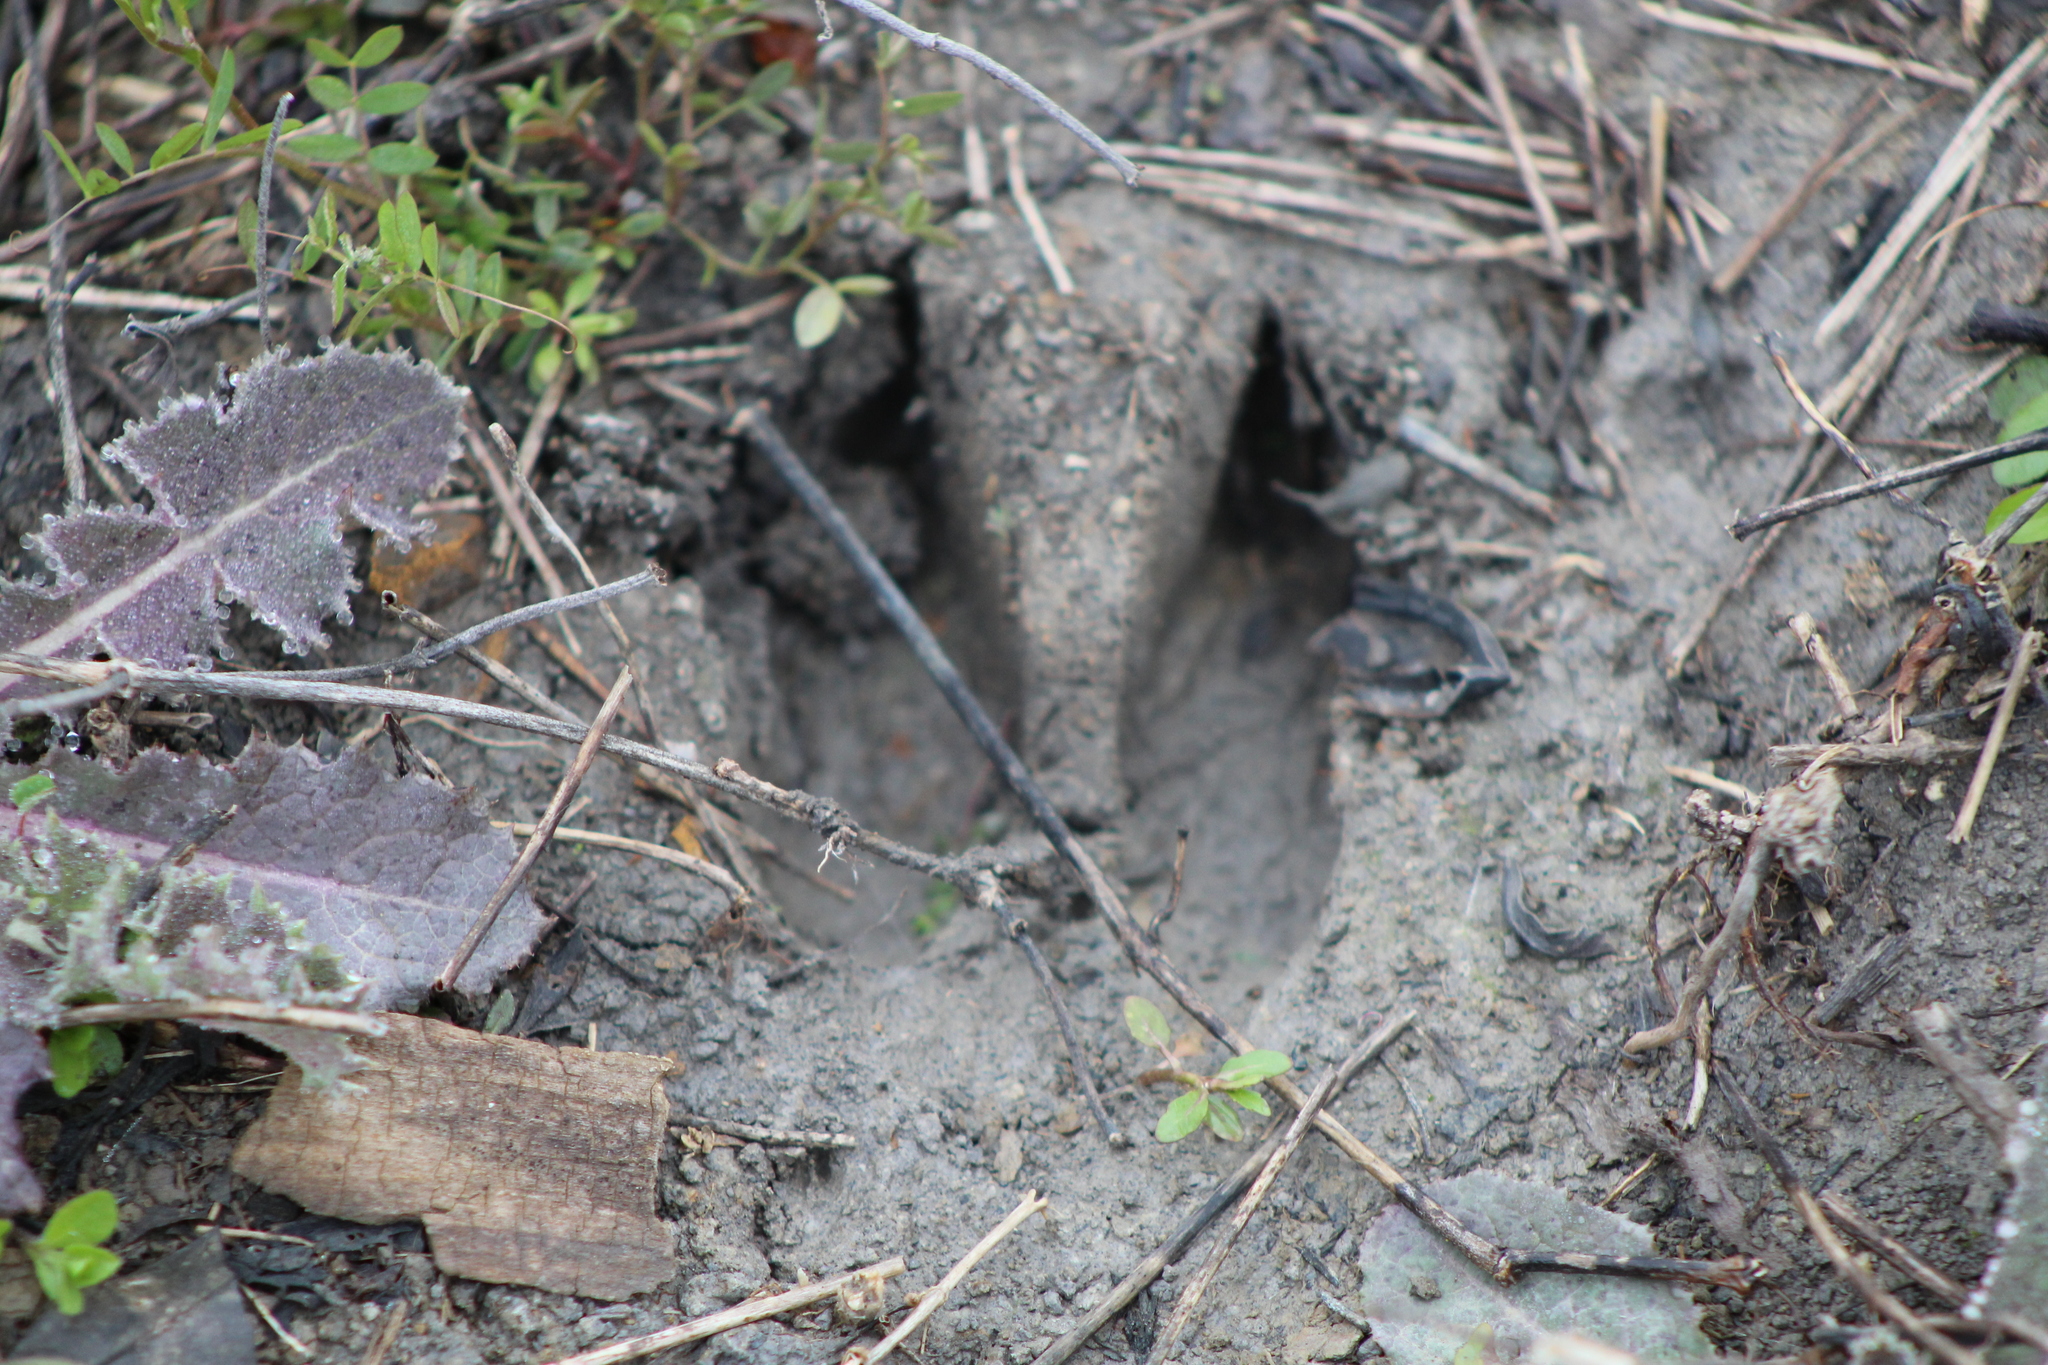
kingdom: Animalia
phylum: Chordata
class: Mammalia
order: Artiodactyla
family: Cervidae
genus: Odocoileus
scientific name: Odocoileus virginianus
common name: White-tailed deer
